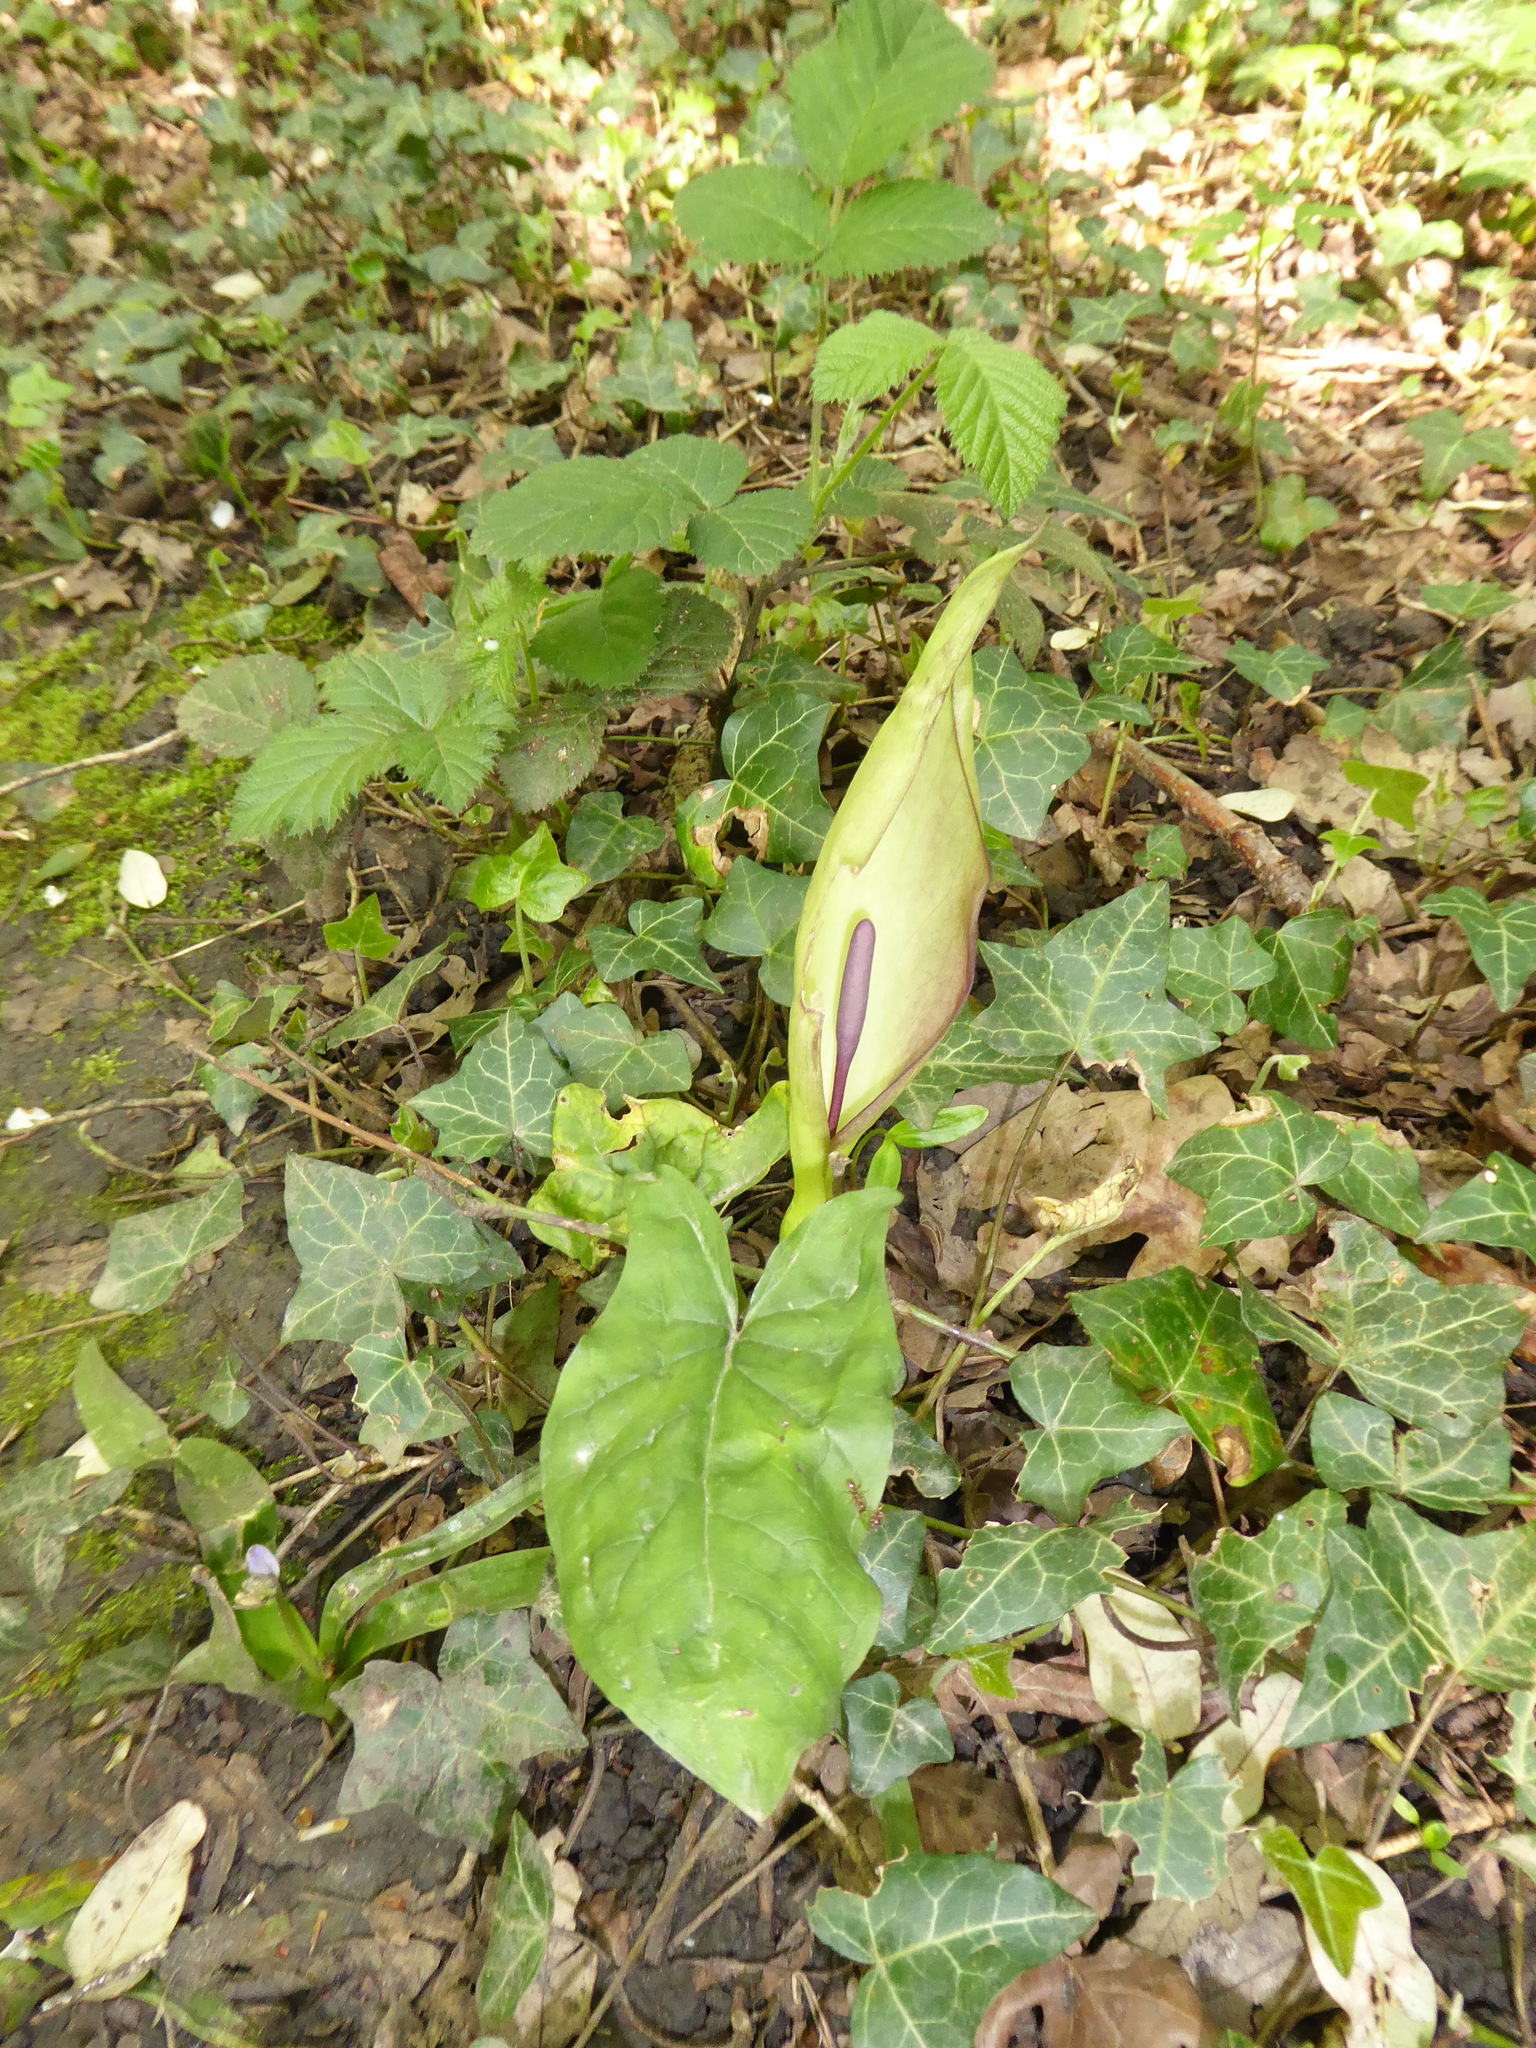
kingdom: Plantae
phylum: Tracheophyta
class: Liliopsida
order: Alismatales
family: Araceae
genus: Arum
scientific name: Arum maculatum
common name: Lords-and-ladies
